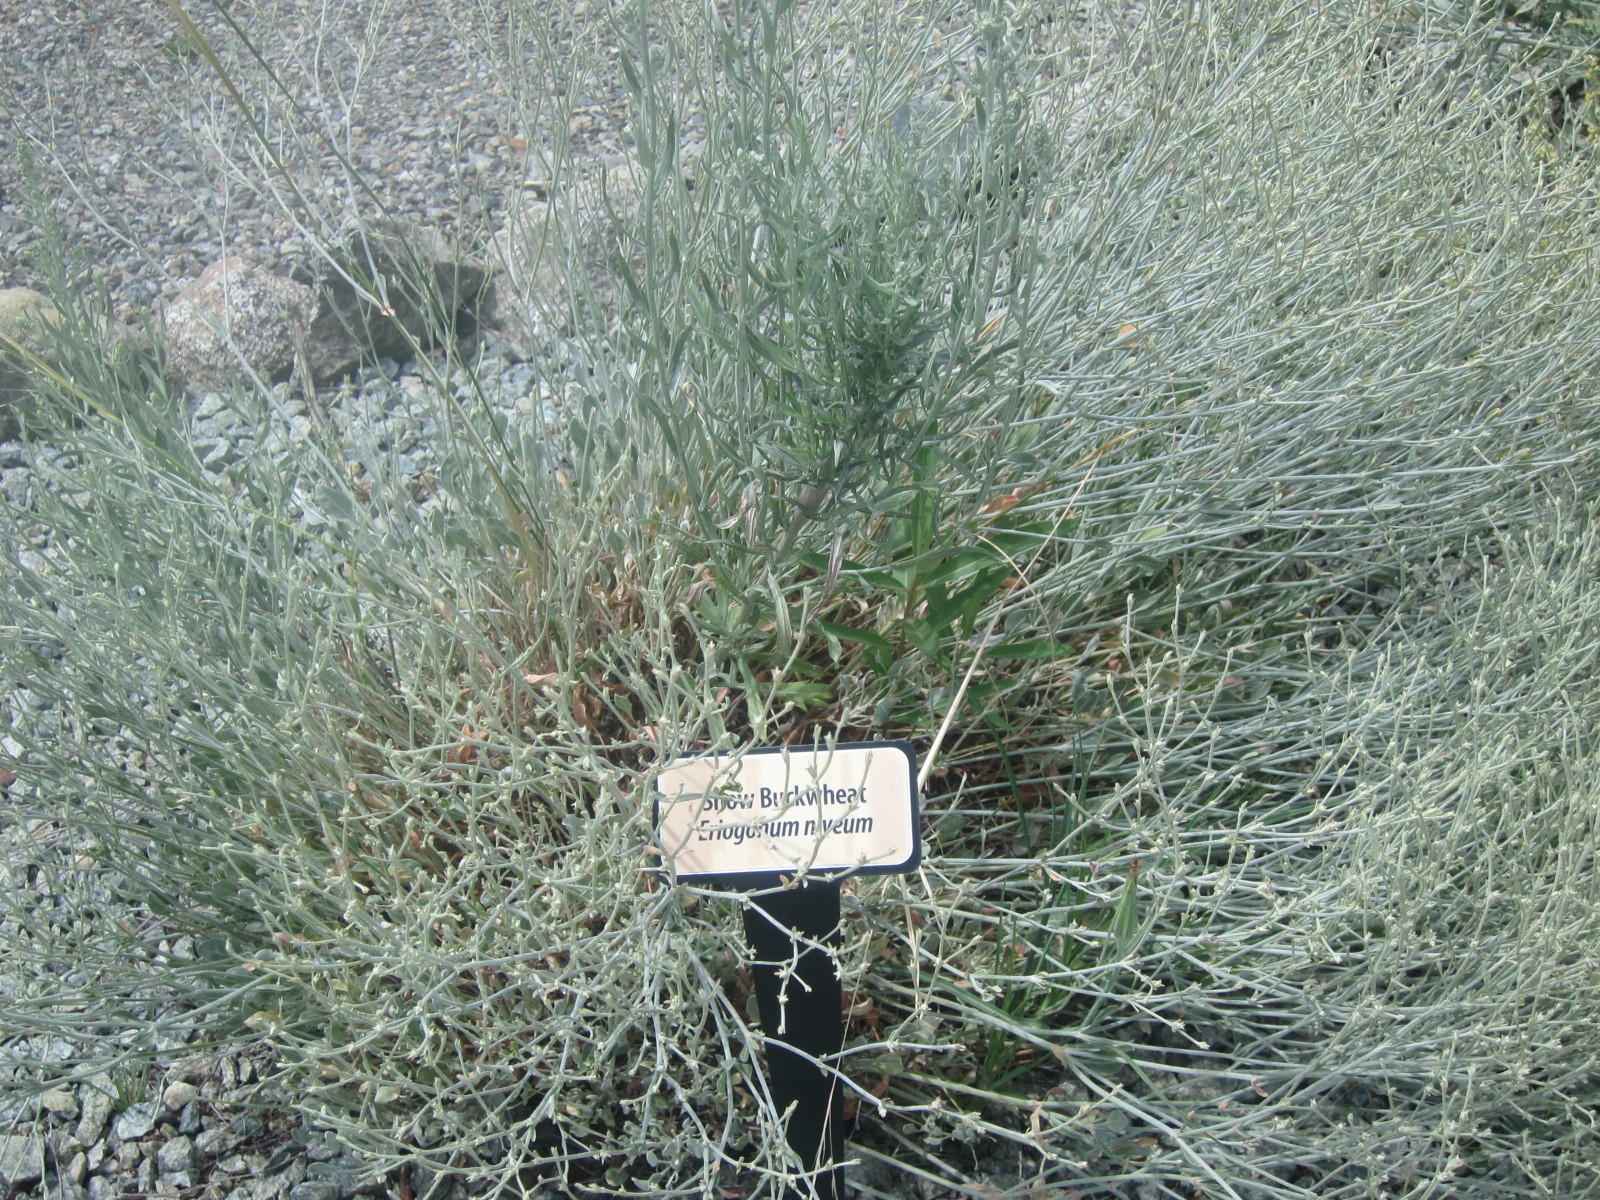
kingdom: Plantae
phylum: Tracheophyta
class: Magnoliopsida
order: Caryophyllales
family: Polygonaceae
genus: Eriogonum
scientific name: Eriogonum niveum
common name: Snow wild buckwheat
